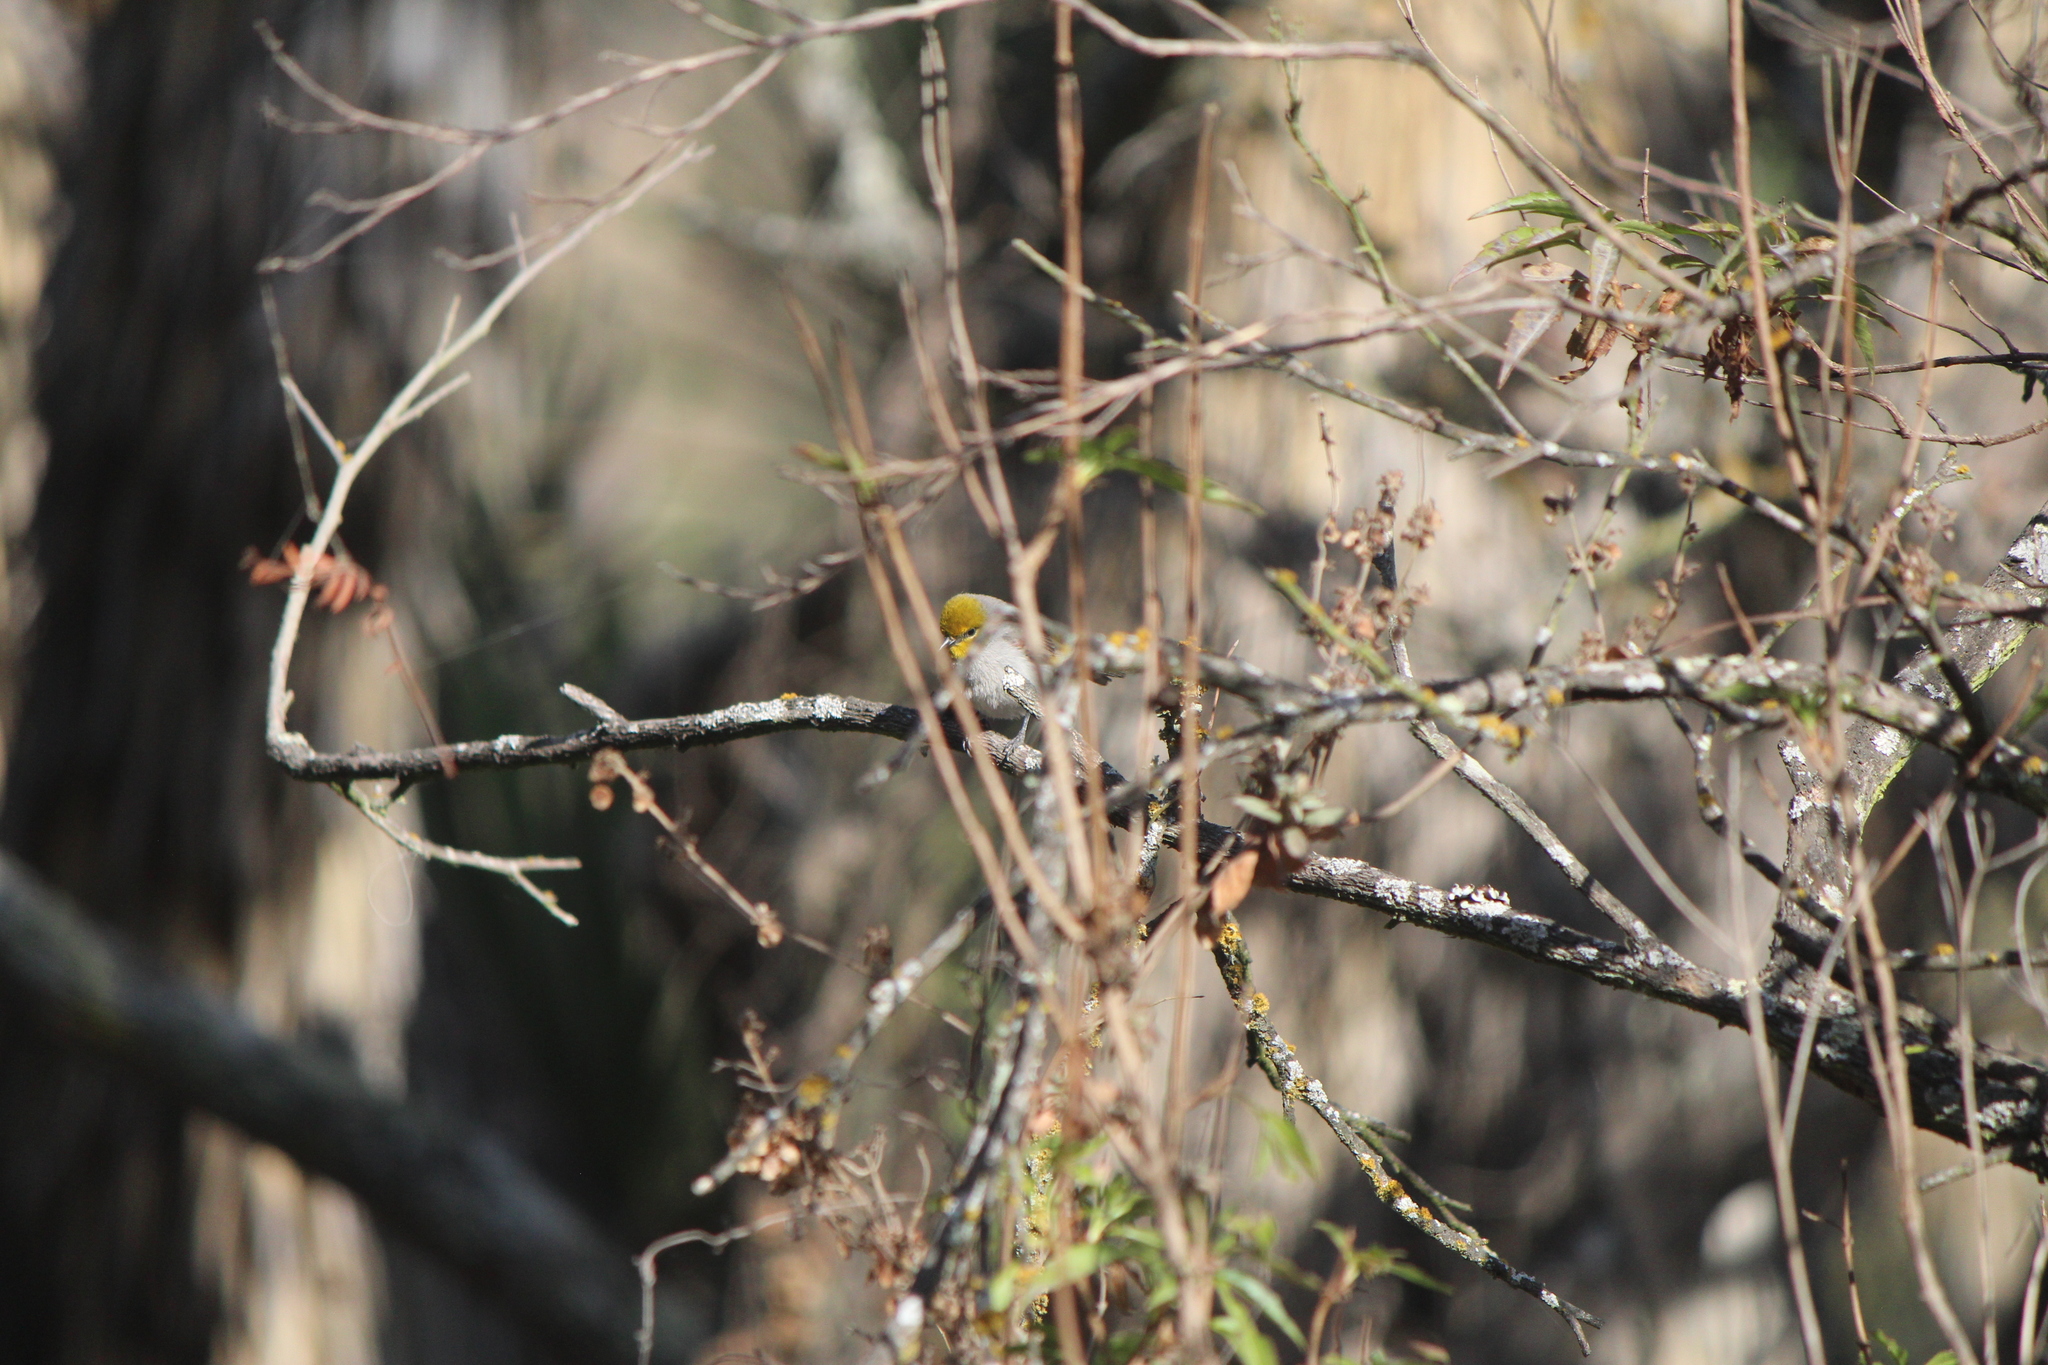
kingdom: Animalia
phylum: Chordata
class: Aves
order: Passeriformes
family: Remizidae
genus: Auriparus
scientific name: Auriparus flaviceps
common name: Verdin
